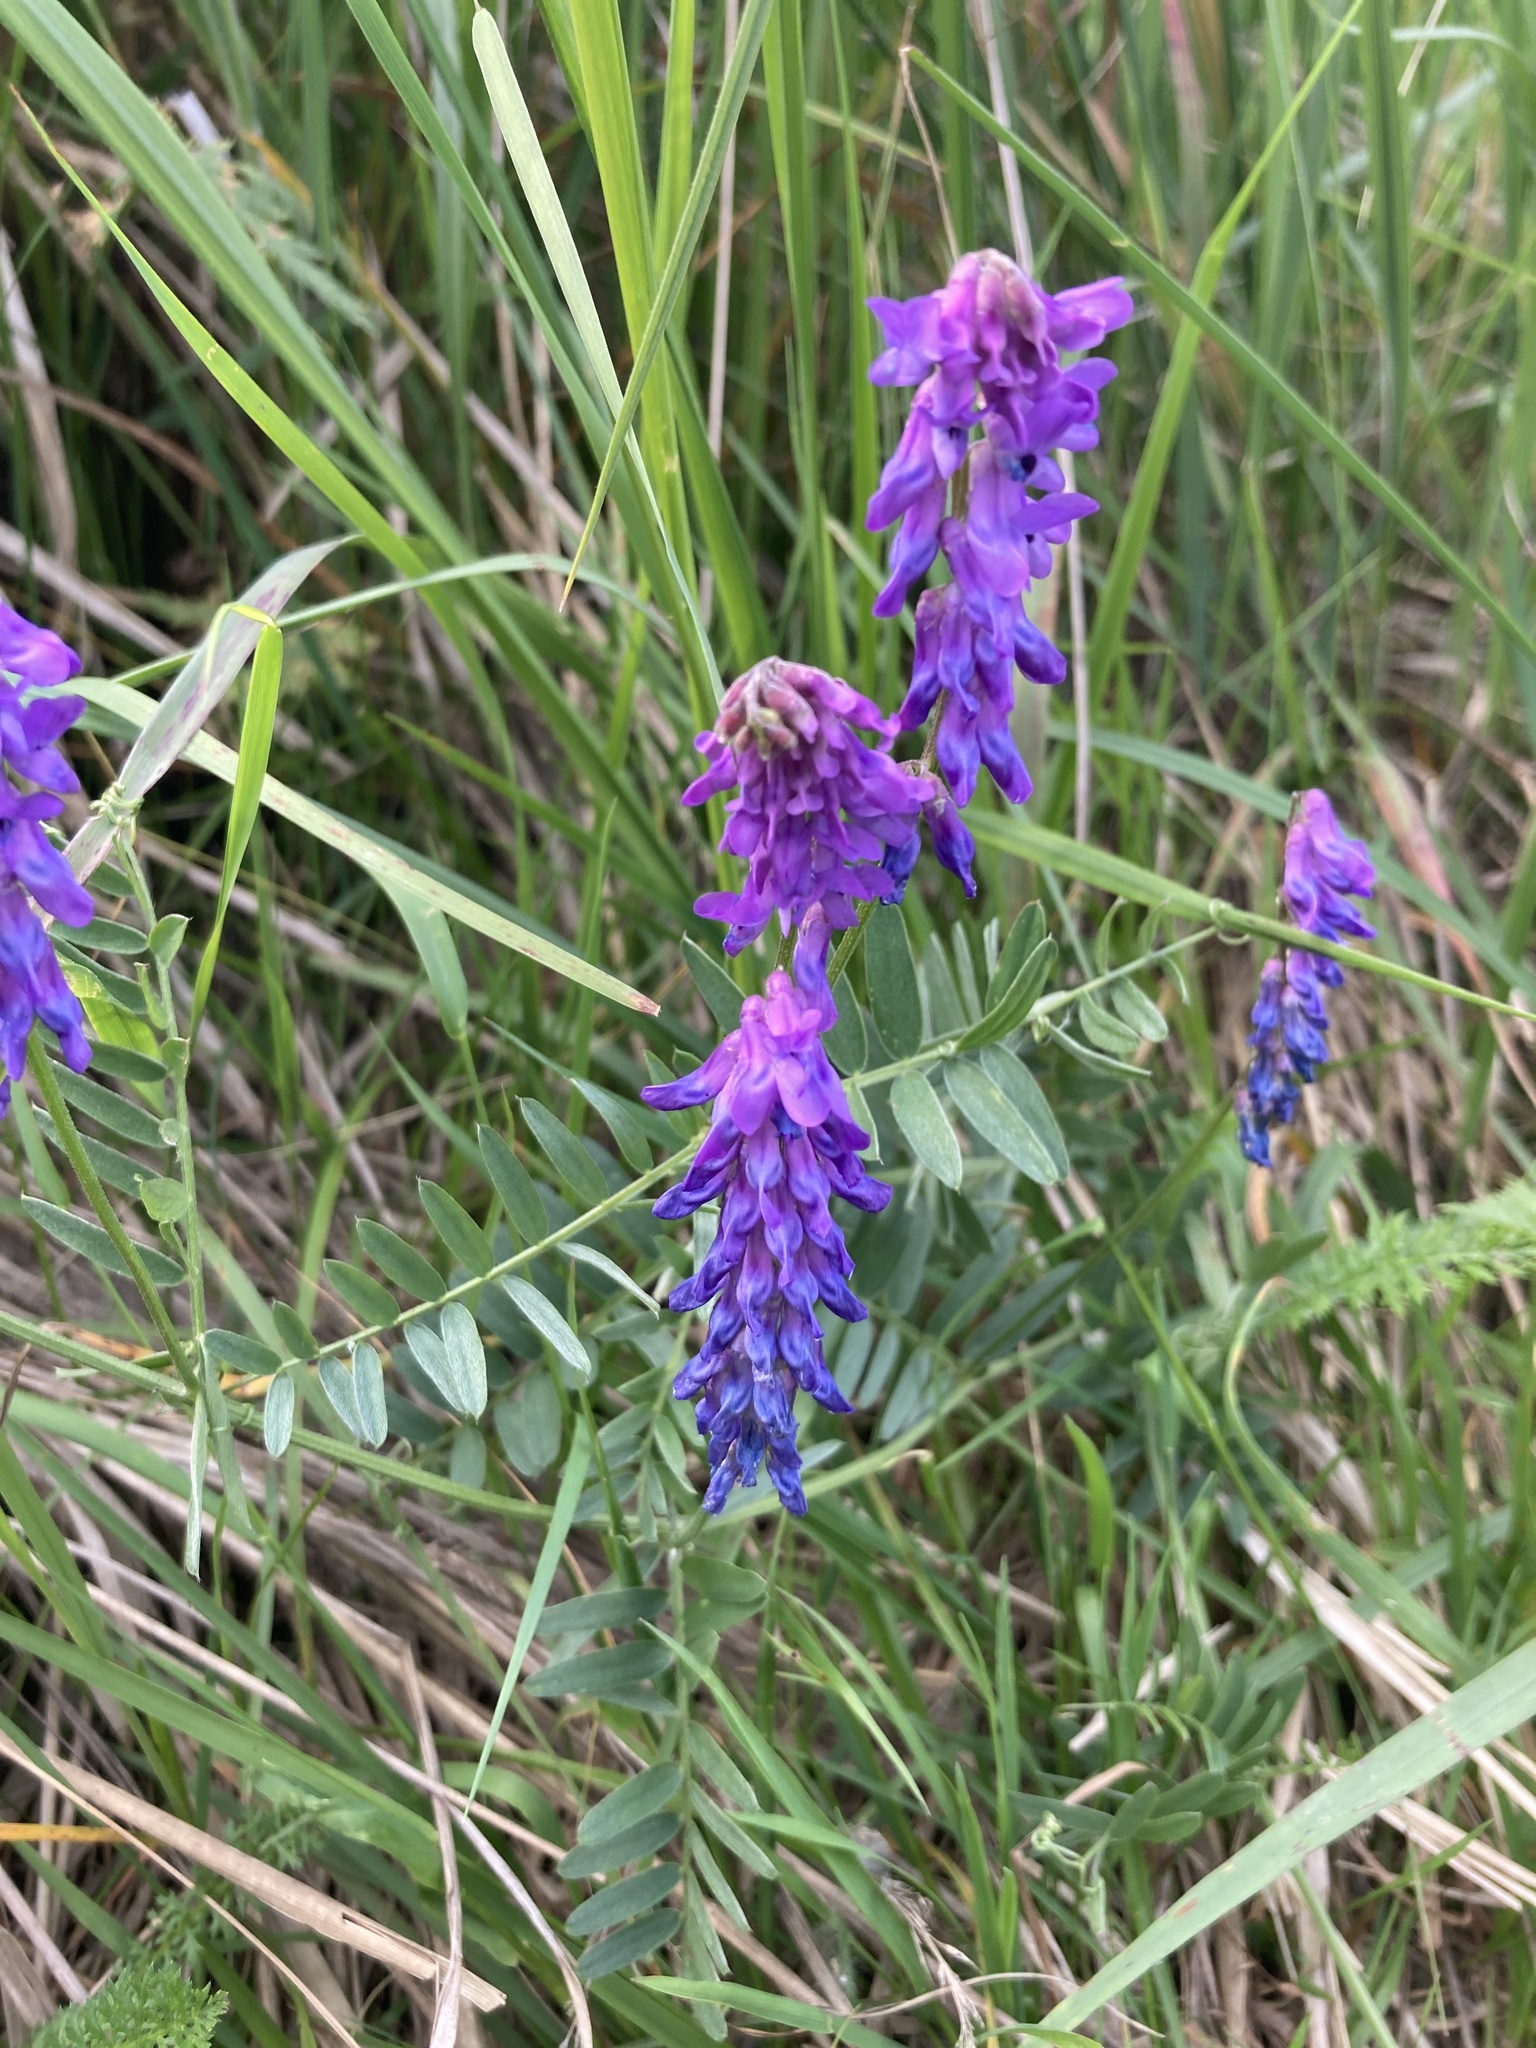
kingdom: Plantae
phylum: Tracheophyta
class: Magnoliopsida
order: Fabales
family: Fabaceae
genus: Vicia
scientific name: Vicia cracca
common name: Bird vetch
